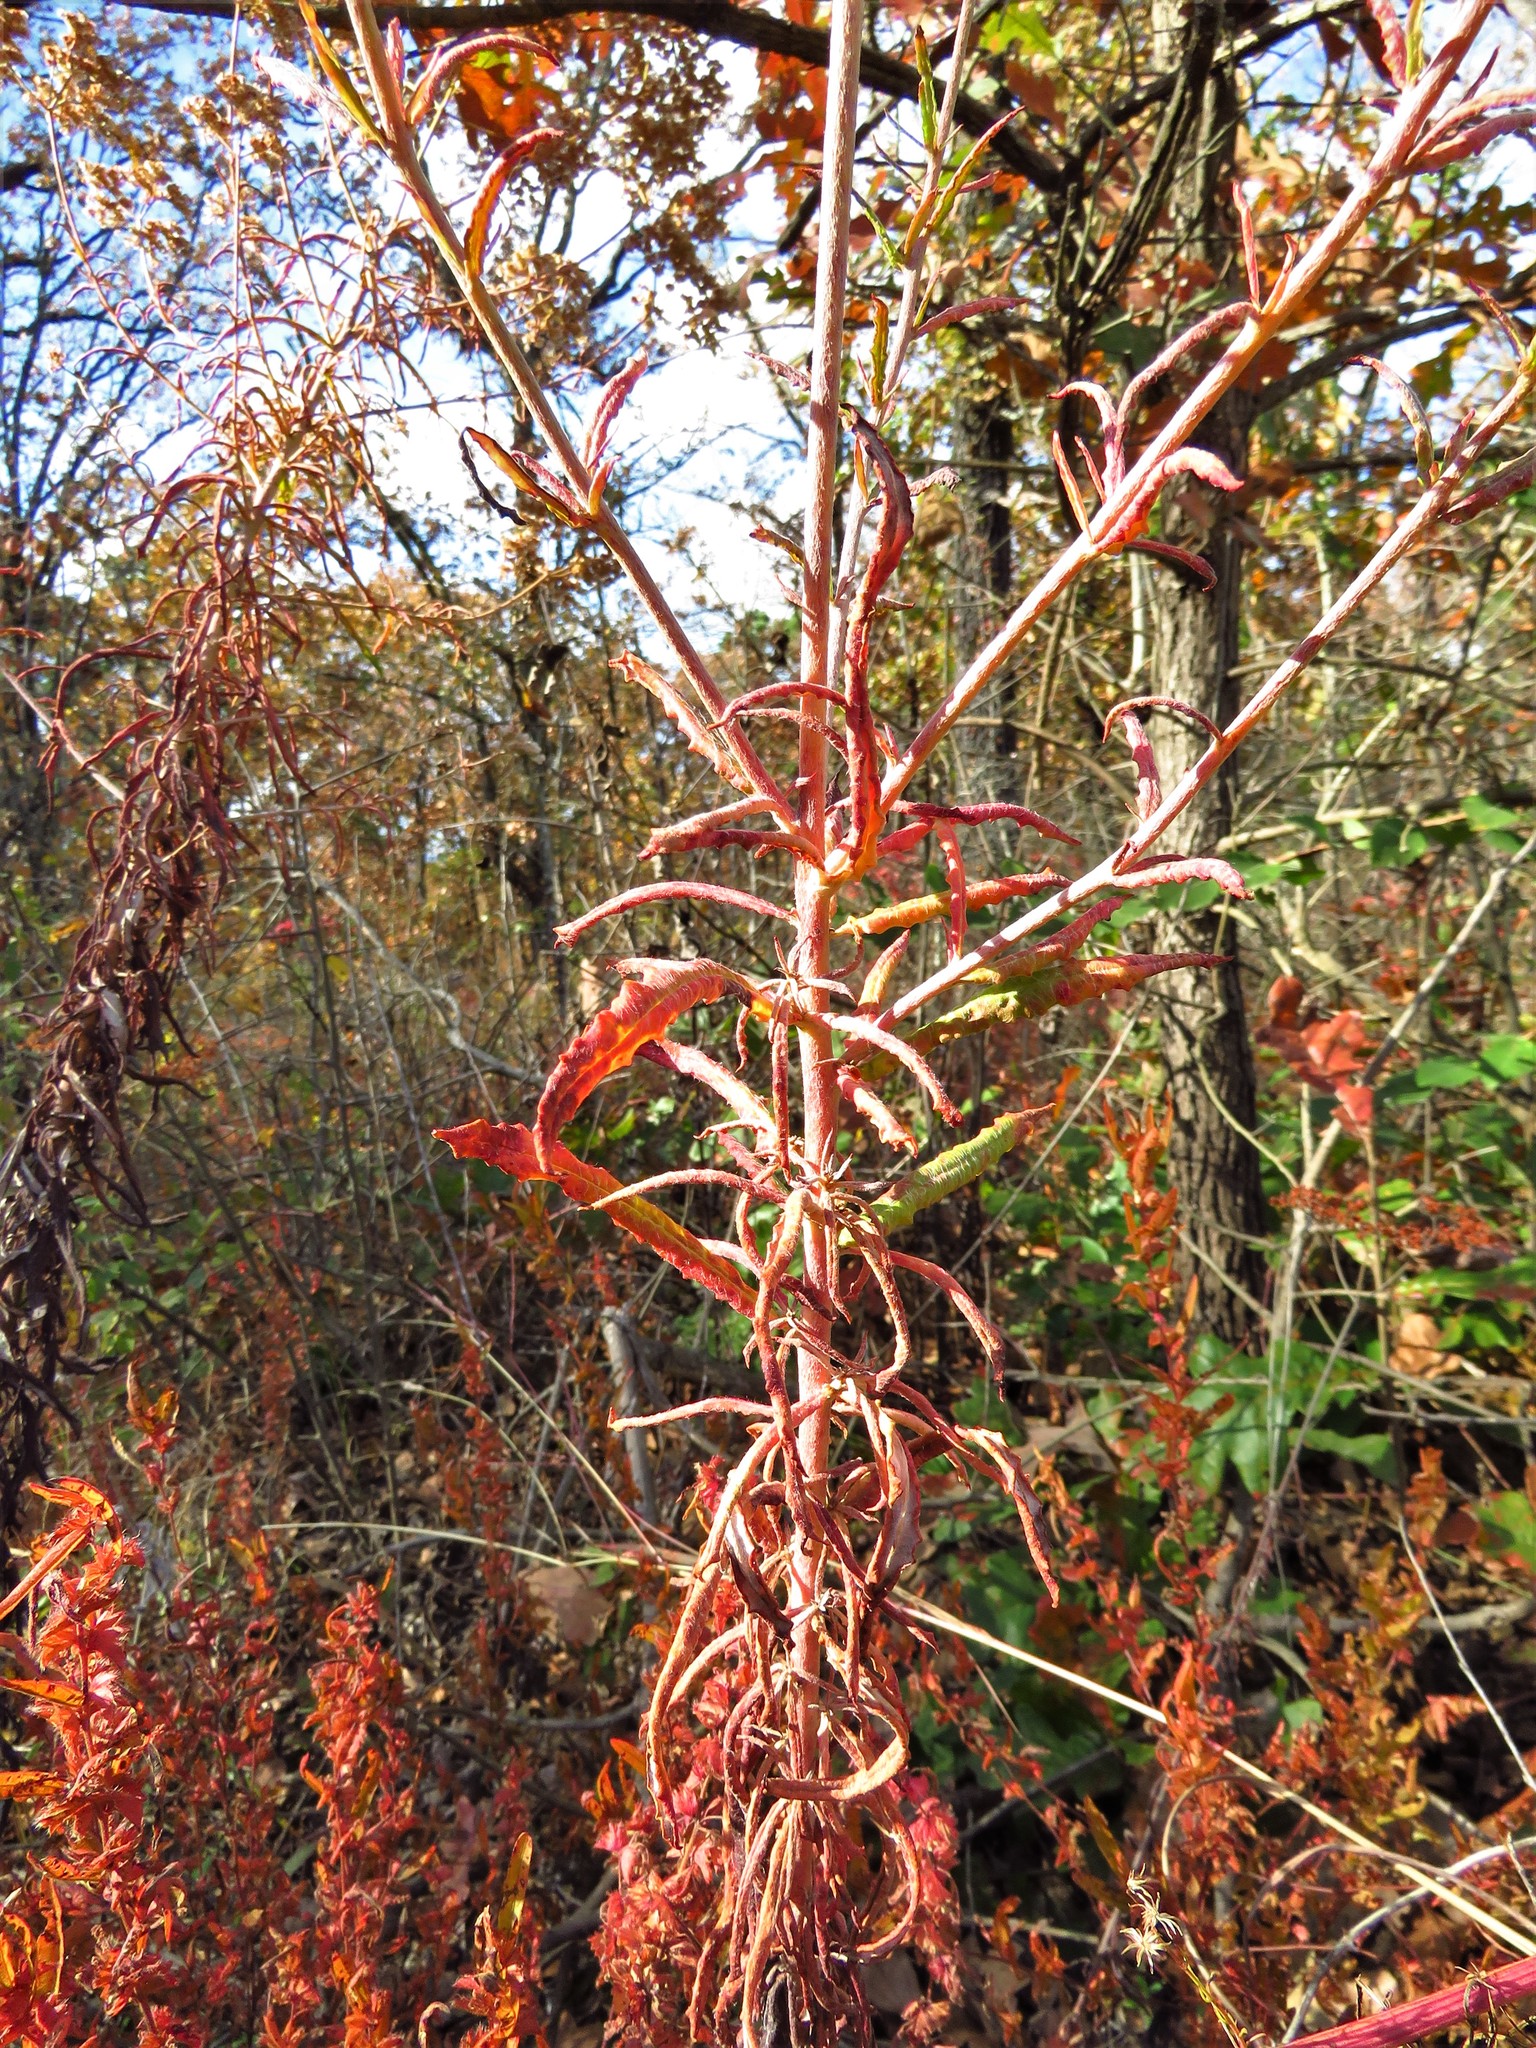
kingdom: Plantae
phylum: Tracheophyta
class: Magnoliopsida
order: Caryophyllales
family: Polygonaceae
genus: Eriogonum
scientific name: Eriogonum multiflorum
